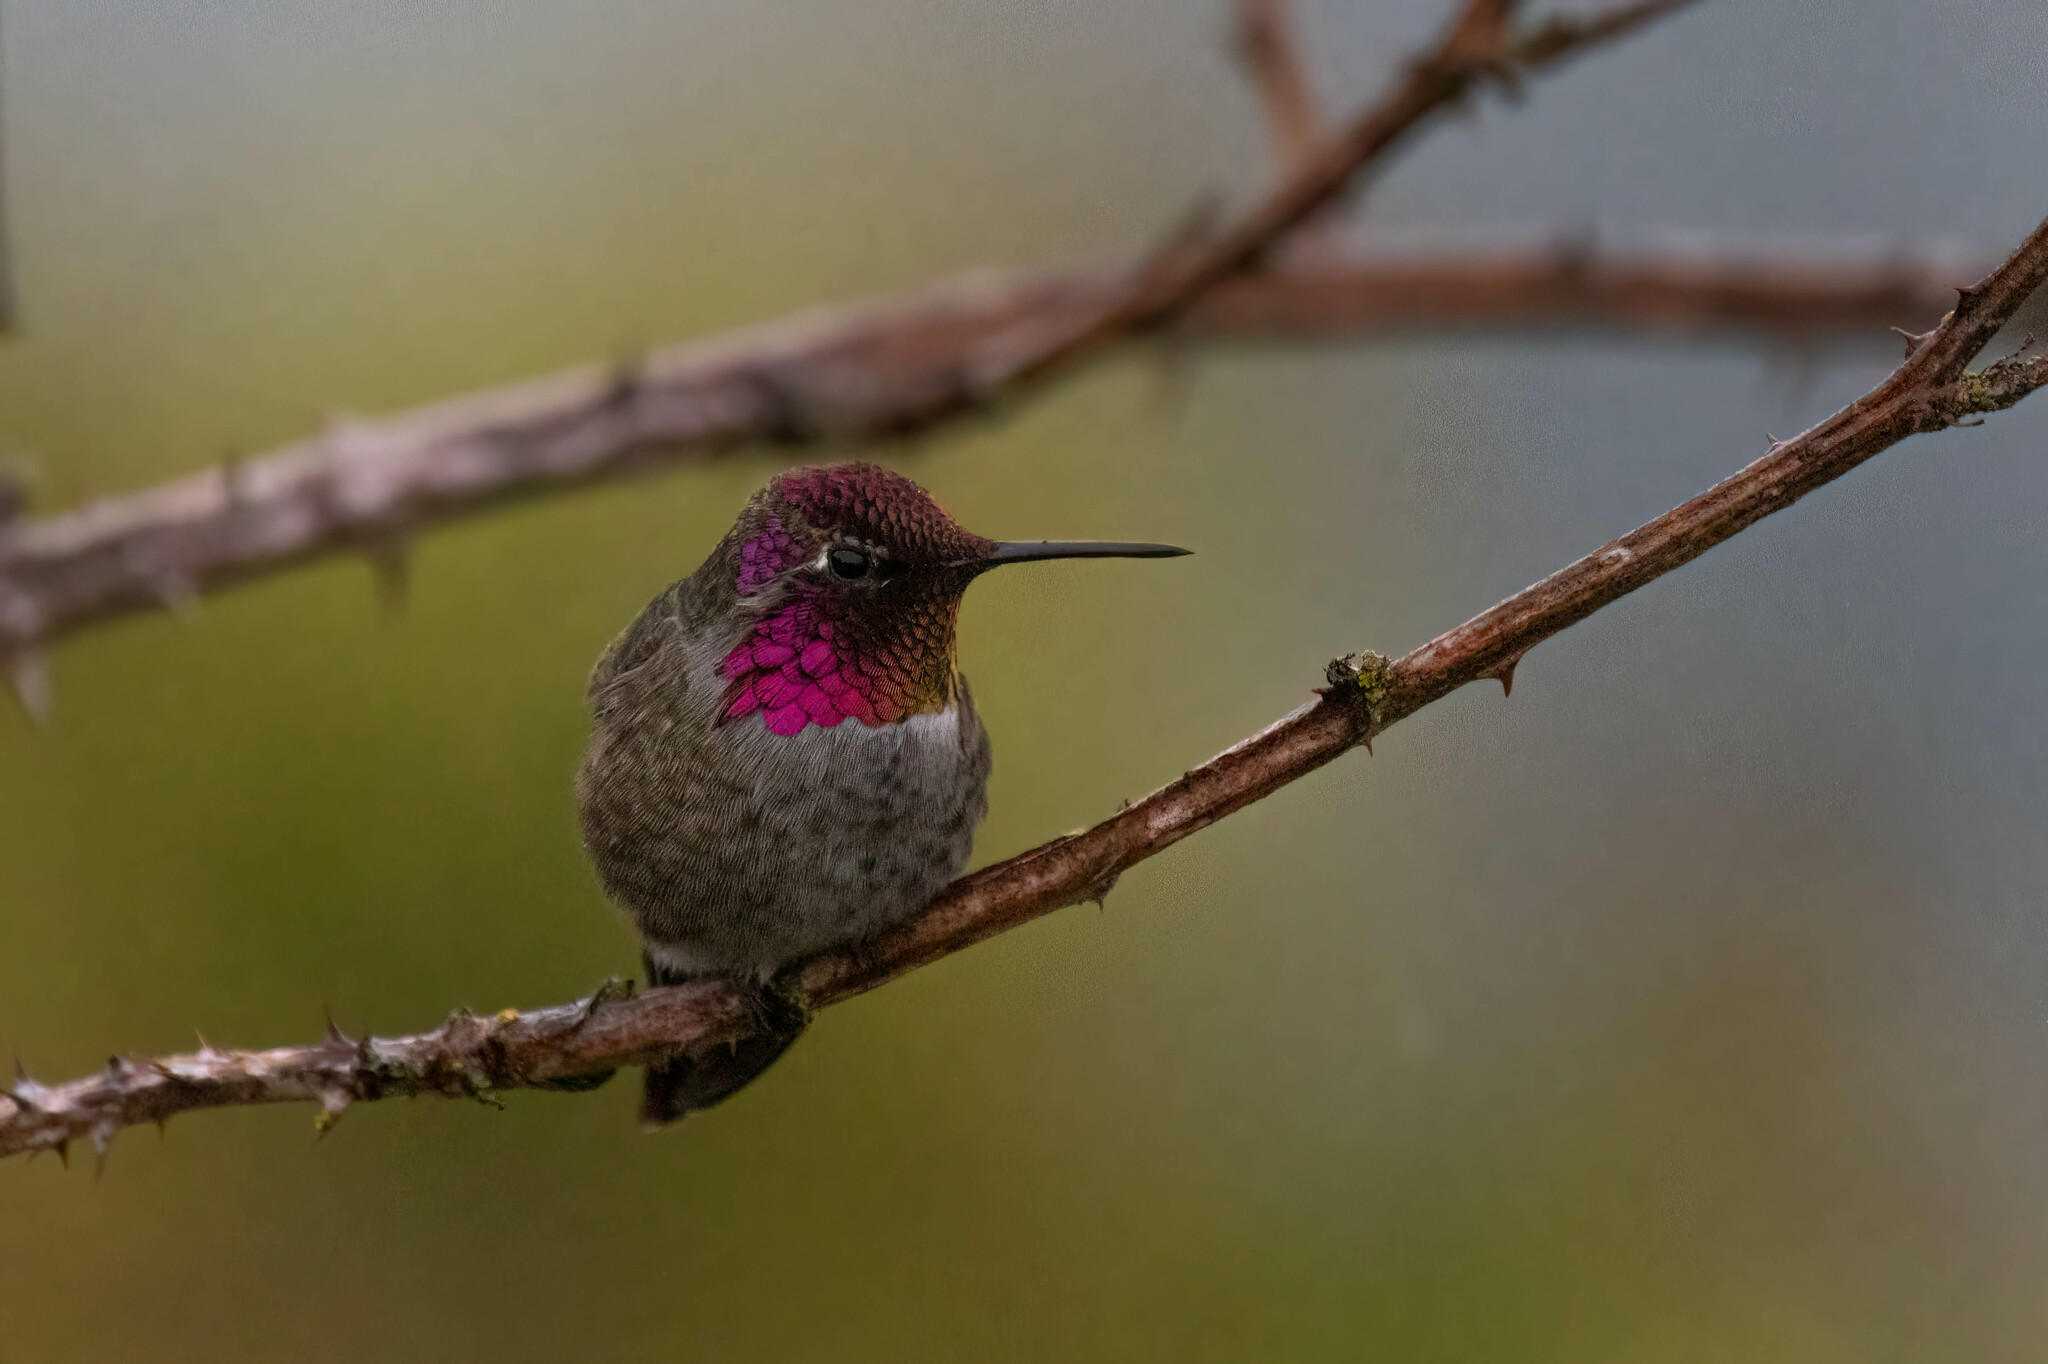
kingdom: Animalia
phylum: Chordata
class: Aves
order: Apodiformes
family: Trochilidae
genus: Calypte
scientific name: Calypte anna
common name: Anna's hummingbird
